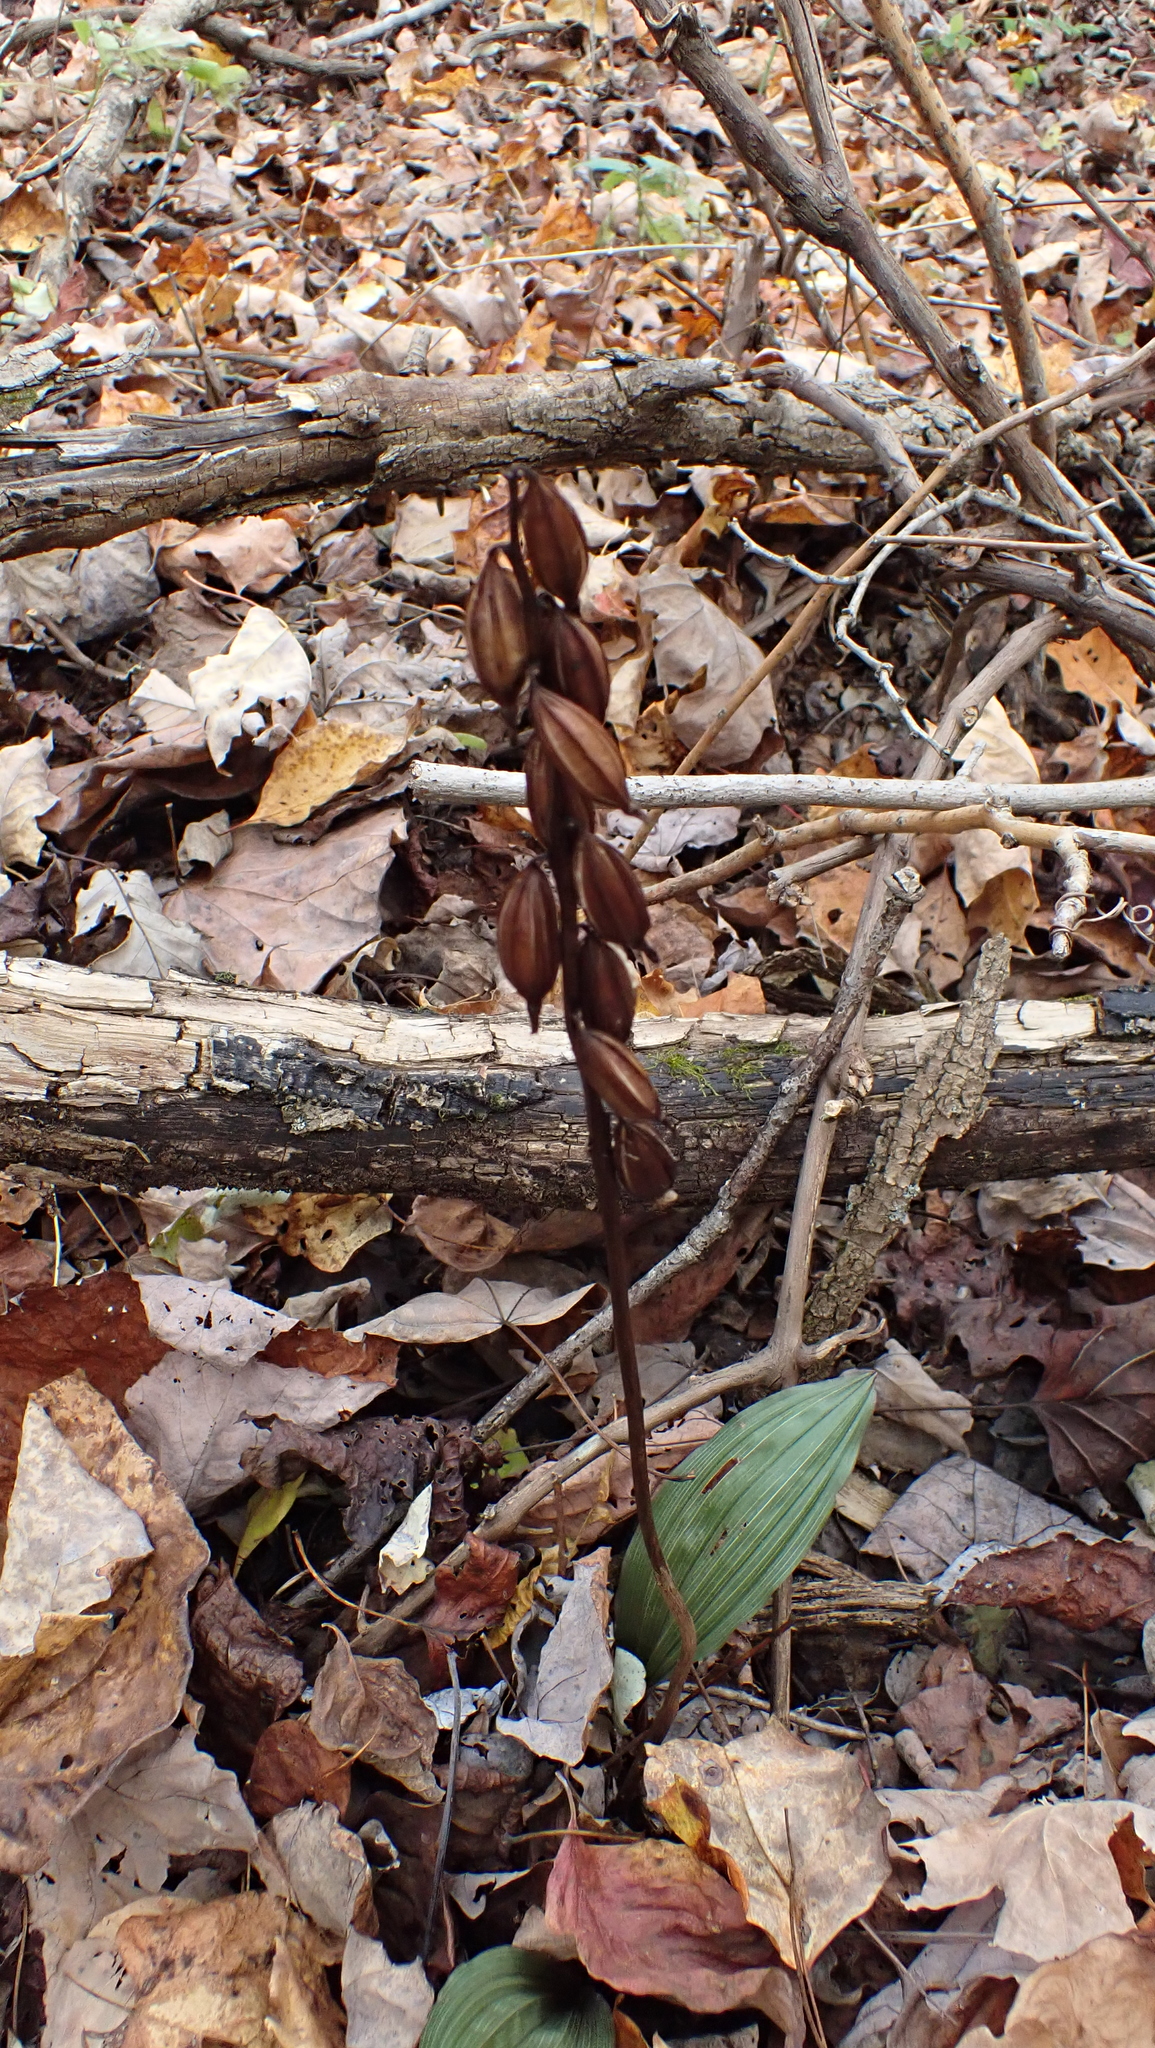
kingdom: Plantae
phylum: Tracheophyta
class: Liliopsida
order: Asparagales
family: Orchidaceae
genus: Aplectrum
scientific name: Aplectrum hyemale
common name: Adam-and-eve
